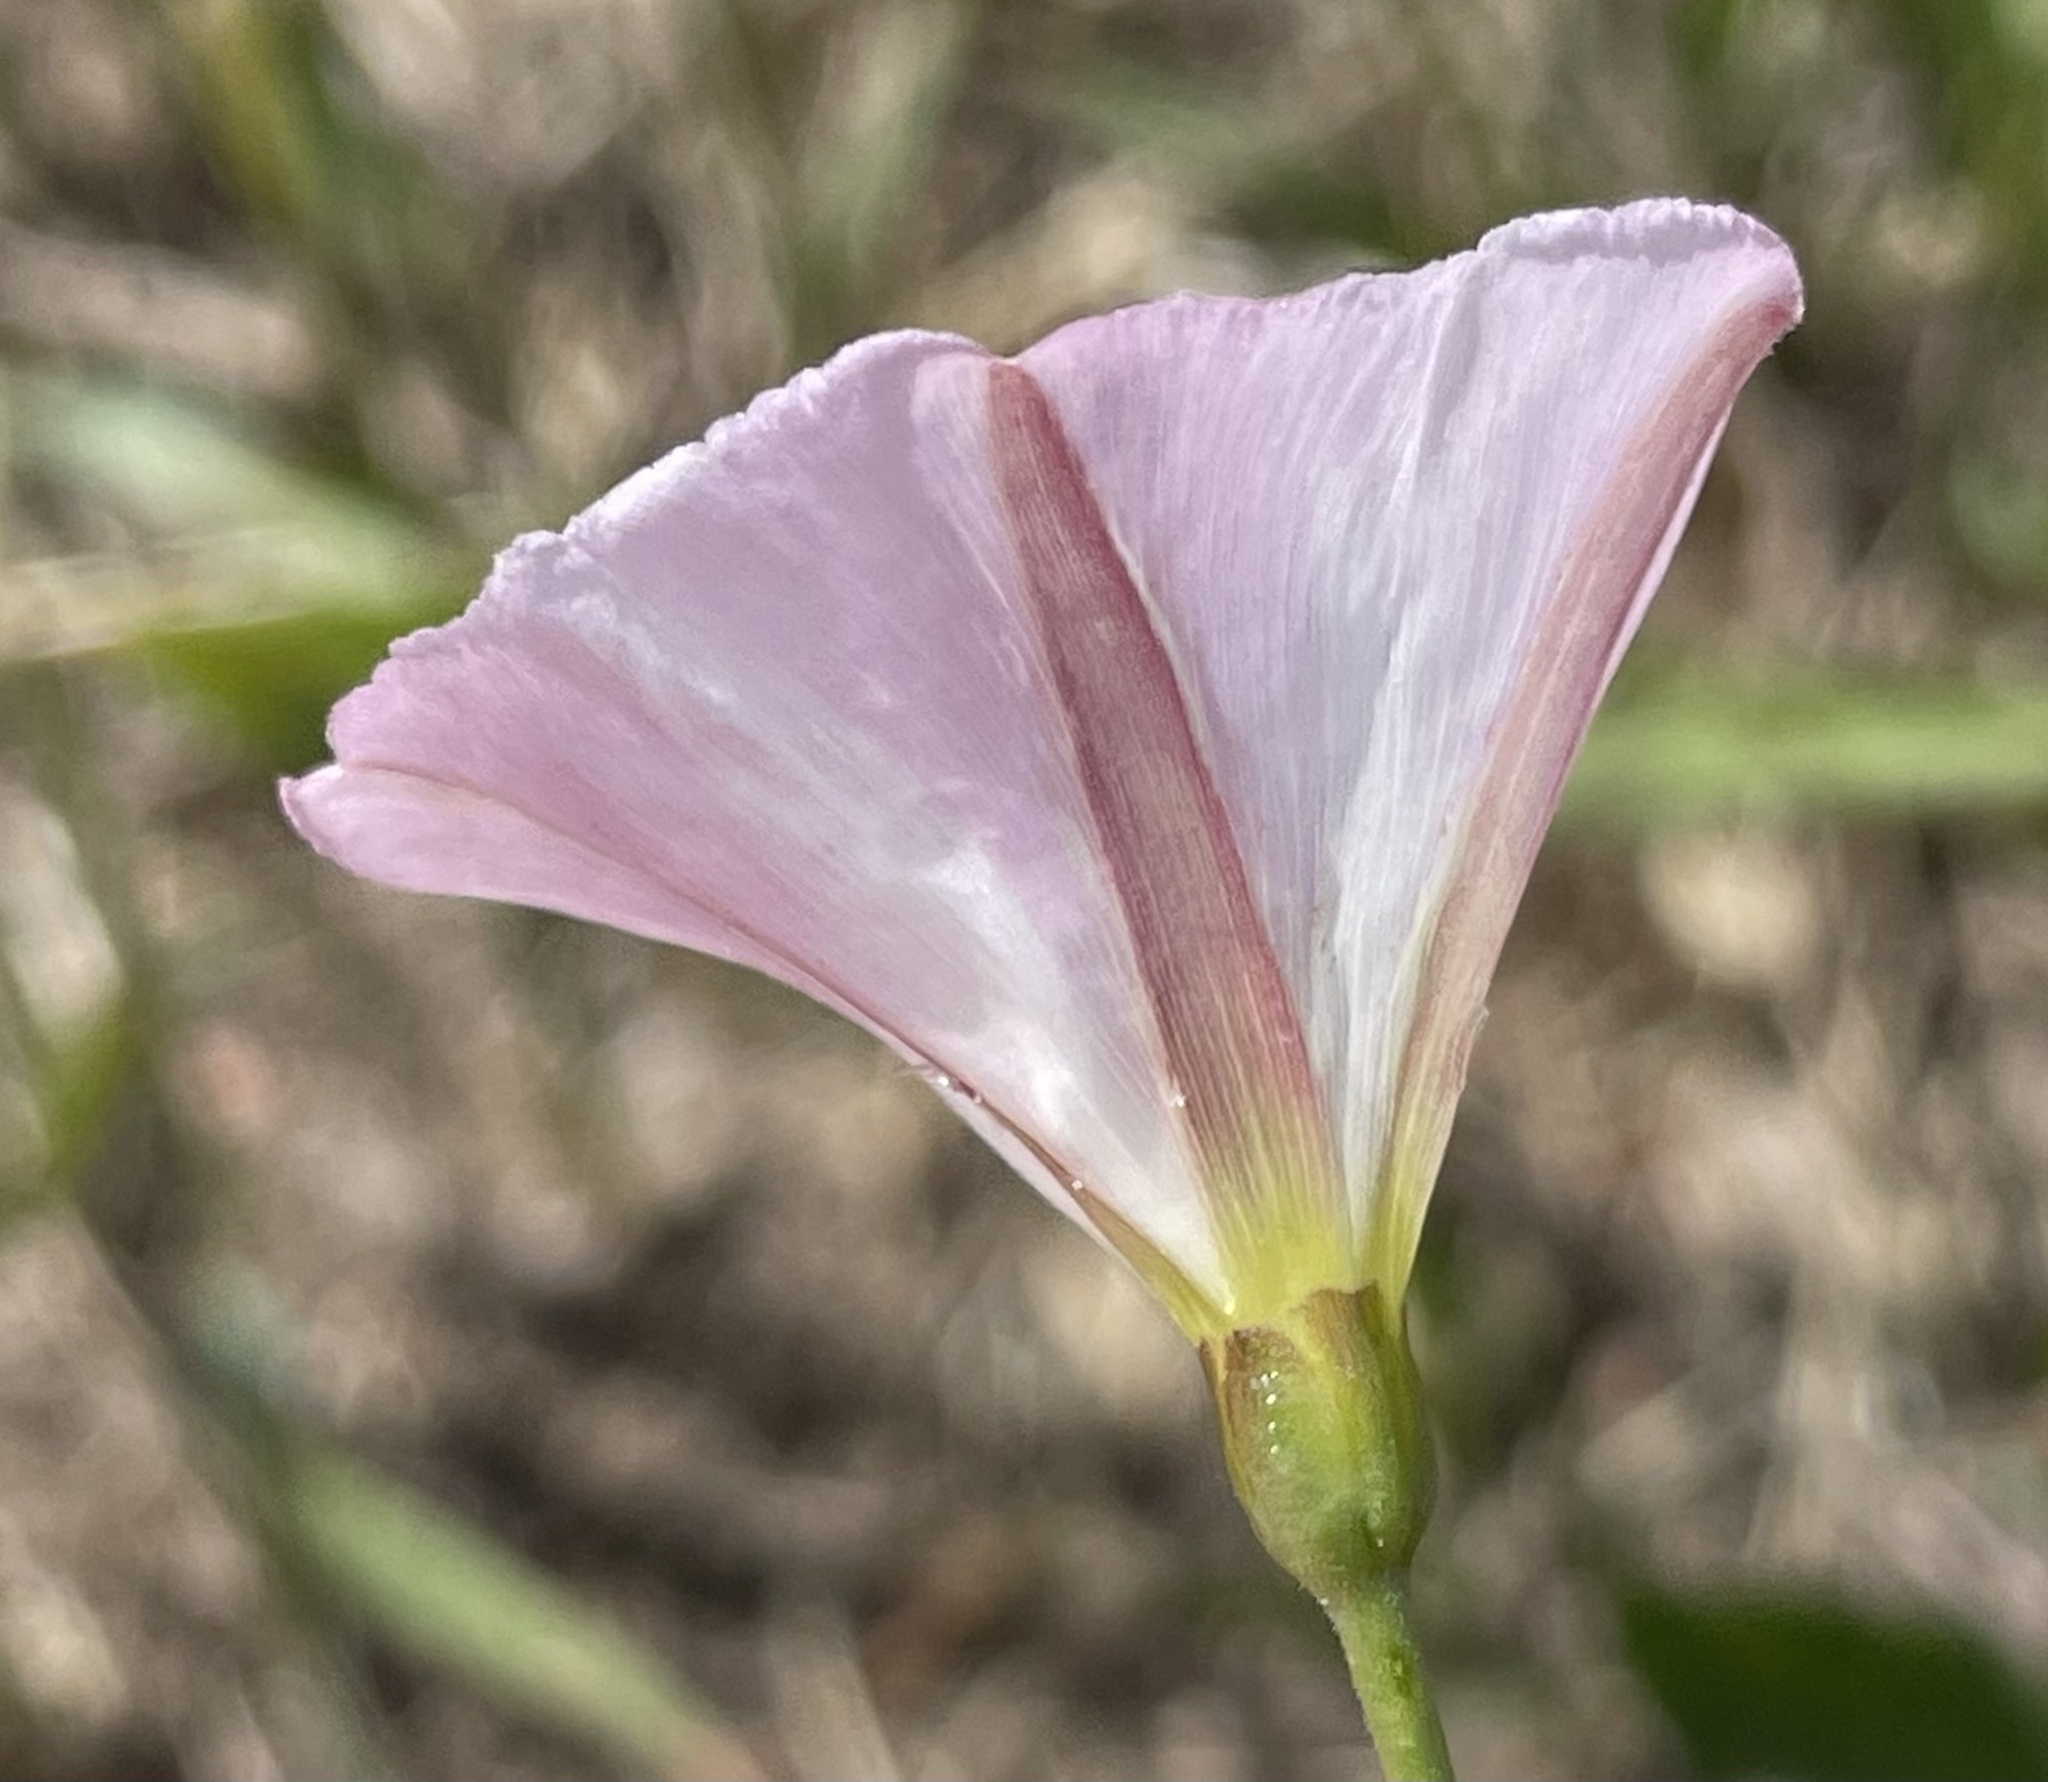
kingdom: Plantae
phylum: Tracheophyta
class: Magnoliopsida
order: Solanales
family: Convolvulaceae
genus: Convolvulus
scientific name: Convolvulus arvensis
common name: Field bindweed
